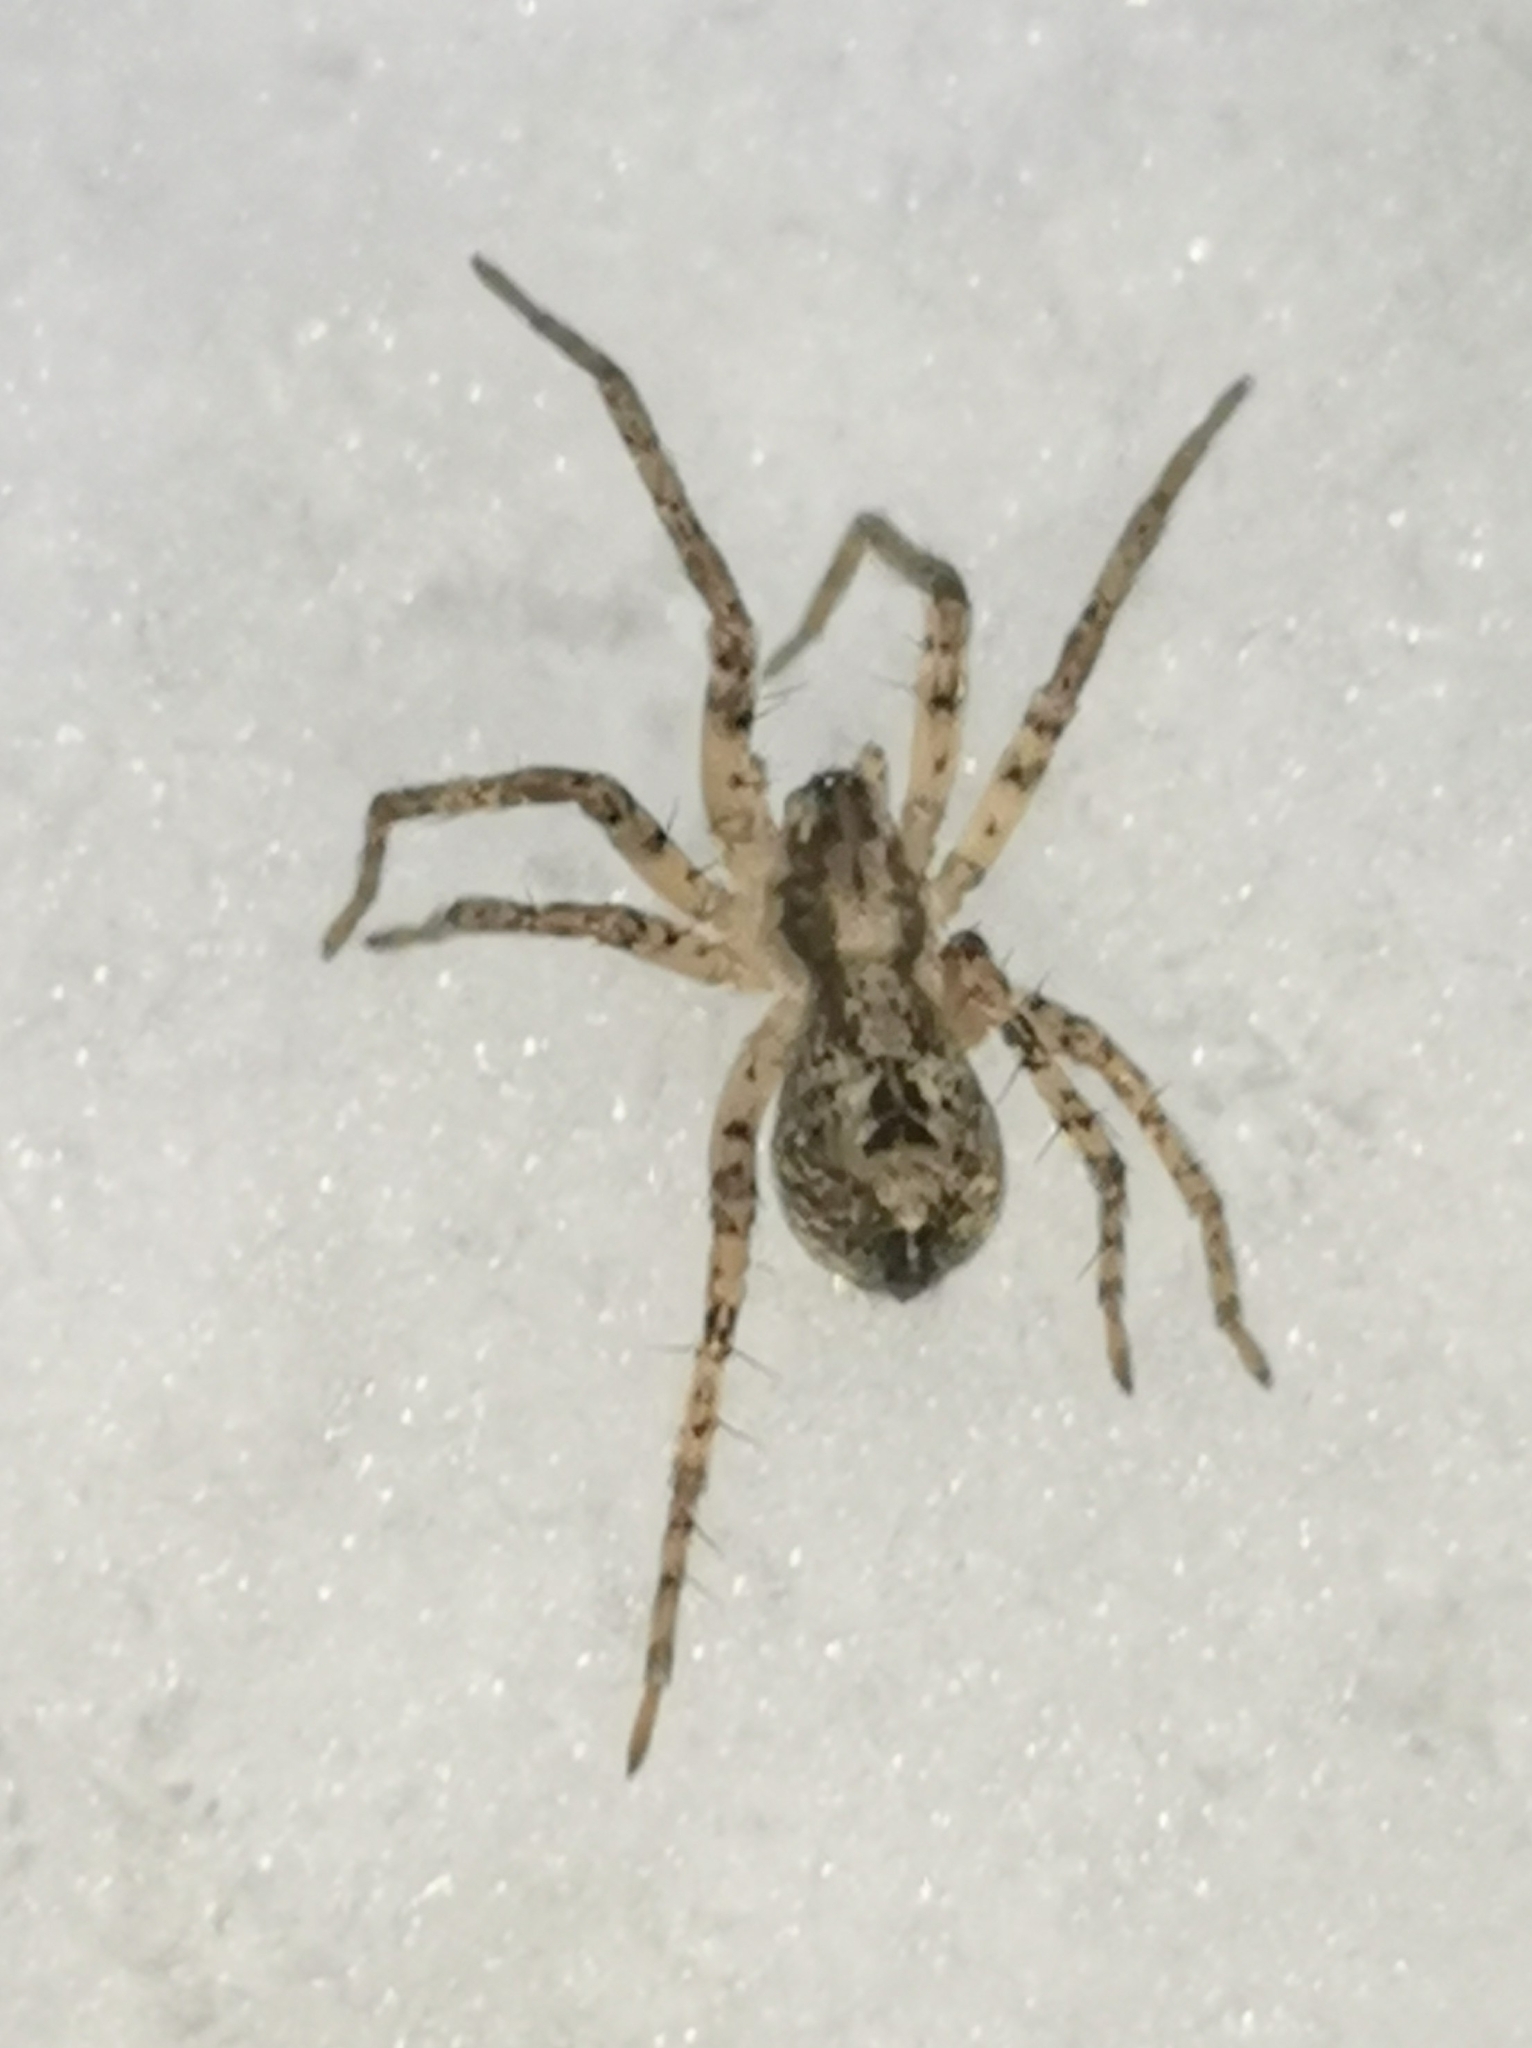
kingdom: Animalia
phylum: Arthropoda
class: Arachnida
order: Araneae
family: Anyphaenidae
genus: Anyphaena
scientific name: Anyphaena accentuata
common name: Buzzing spider
